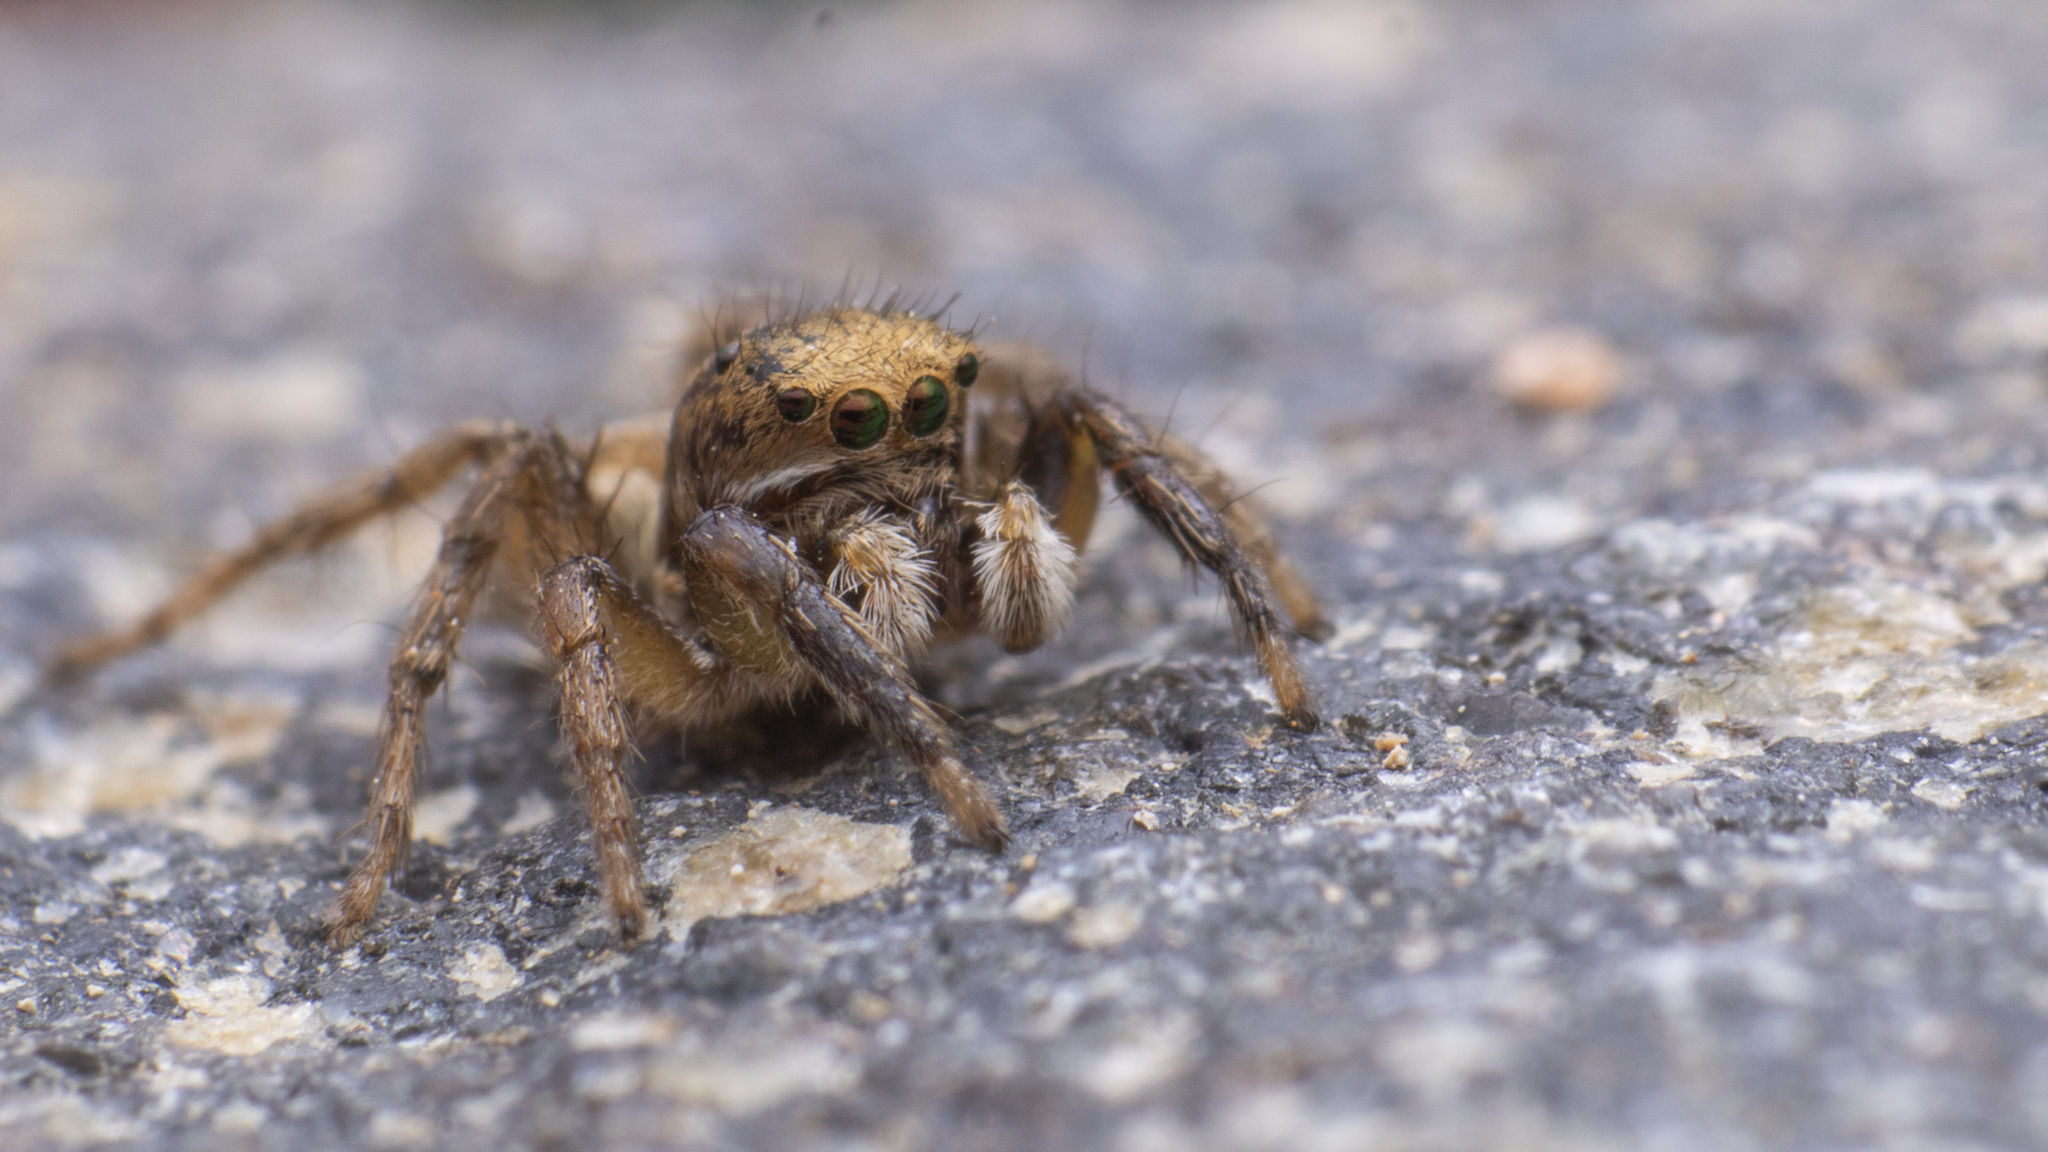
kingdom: Animalia
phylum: Arthropoda
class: Arachnida
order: Araneae
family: Salticidae
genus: Aelurillus
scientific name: Aelurillus kronestedti
